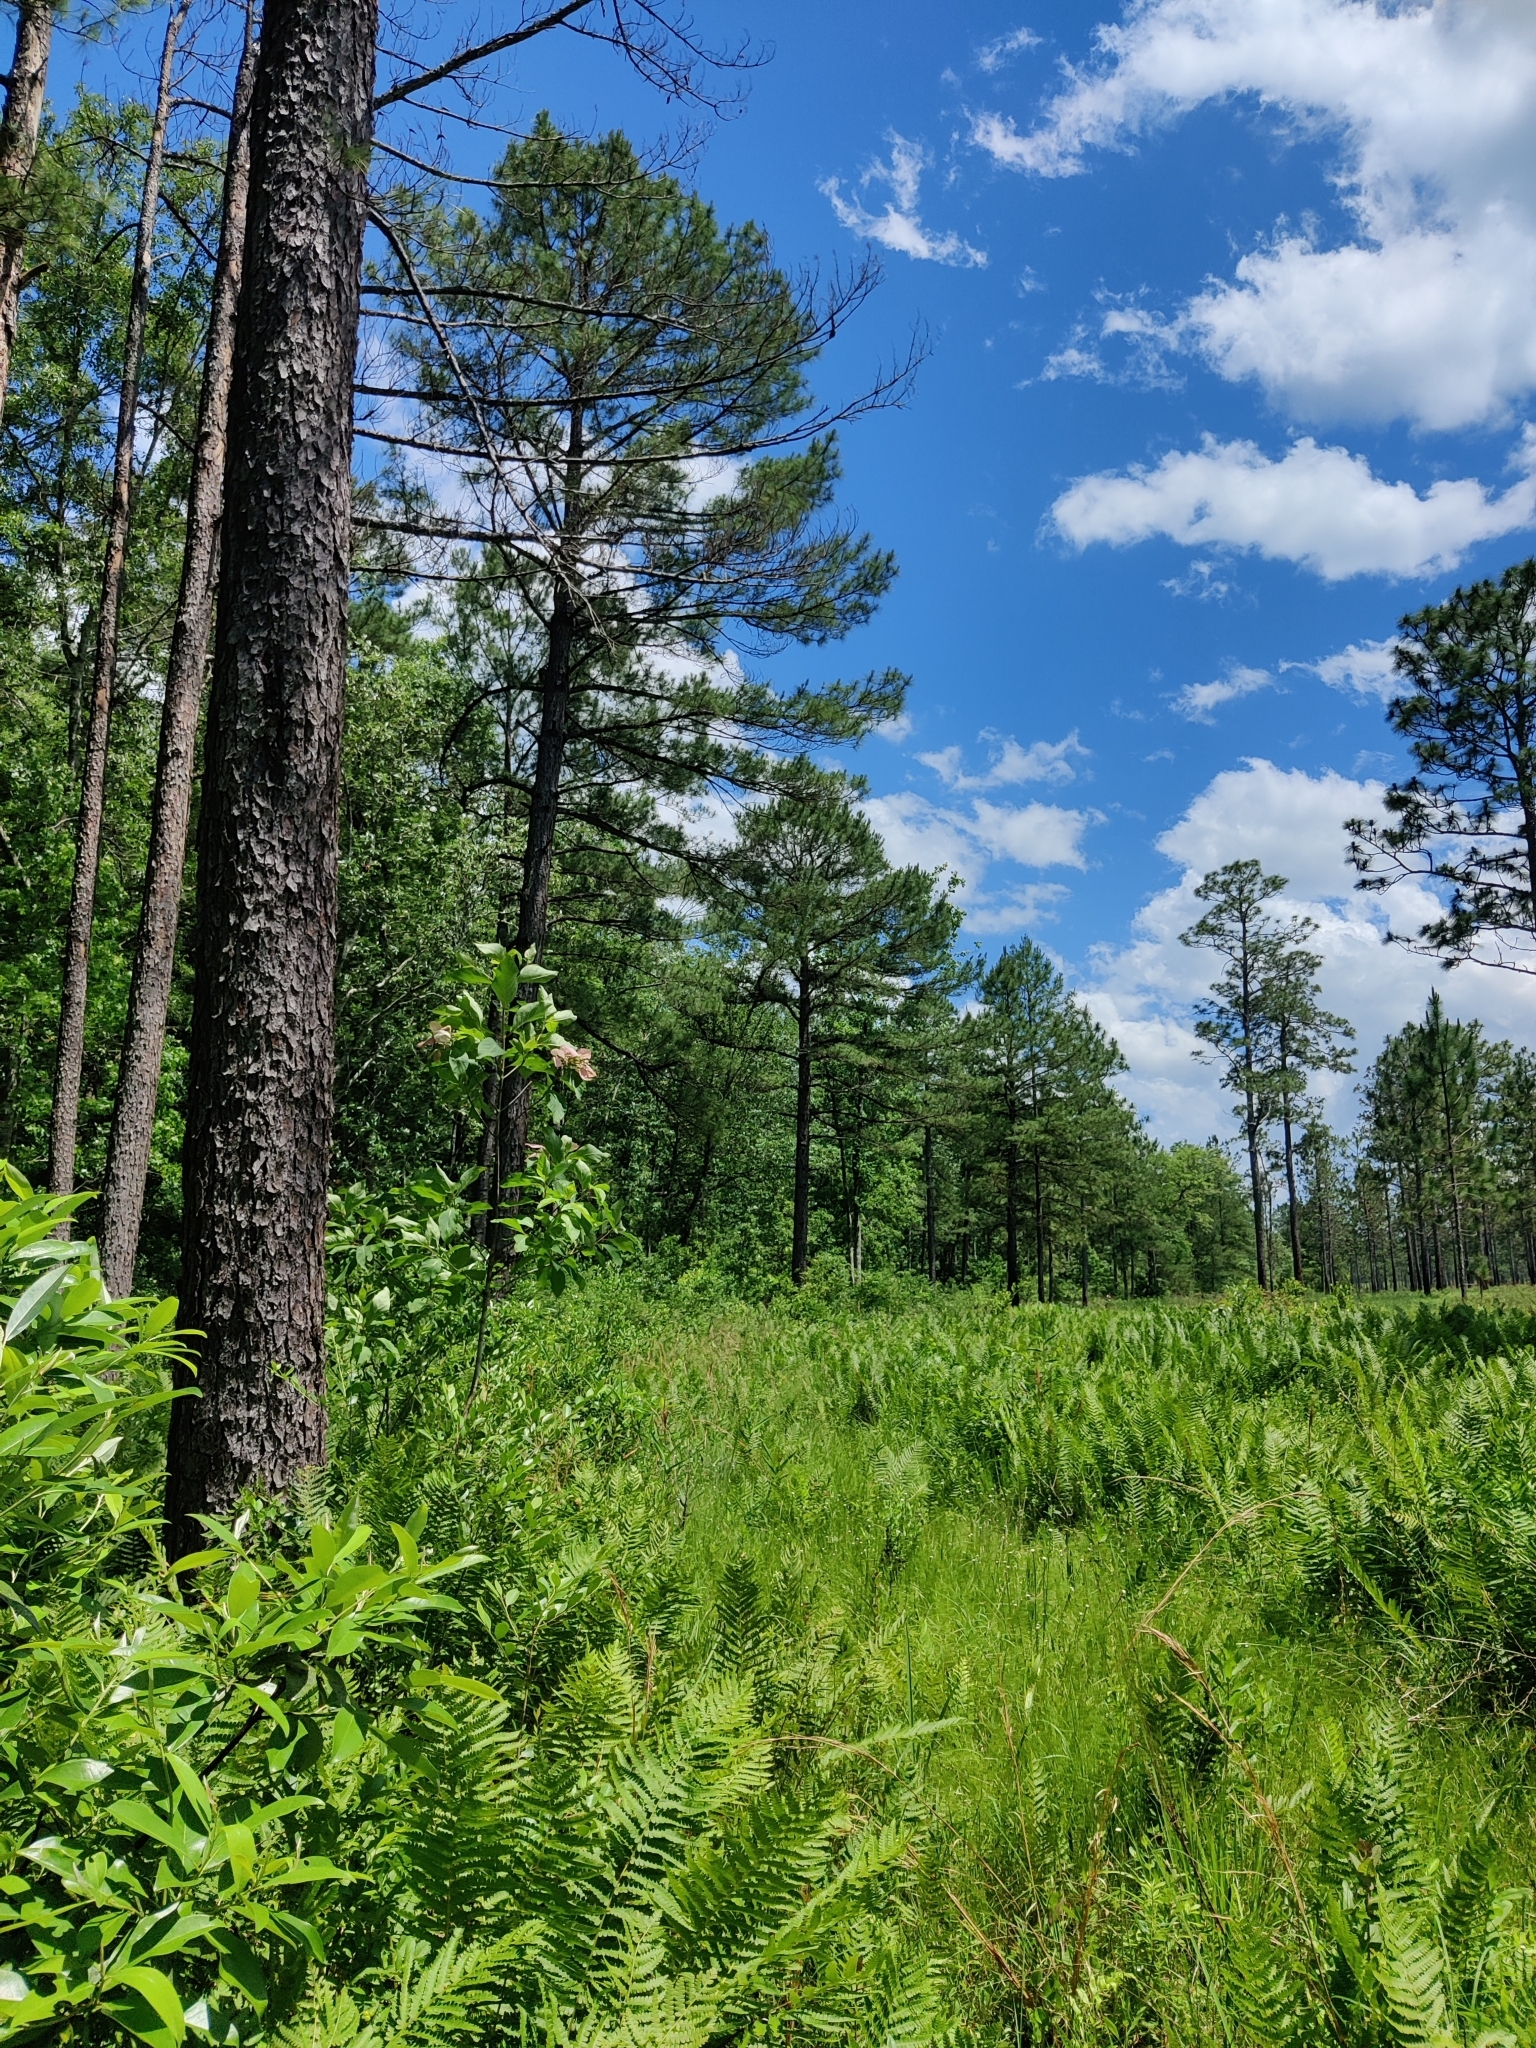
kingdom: Plantae
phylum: Tracheophyta
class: Magnoliopsida
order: Gentianales
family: Rubiaceae
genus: Pinckneya
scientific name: Pinckneya pubens
